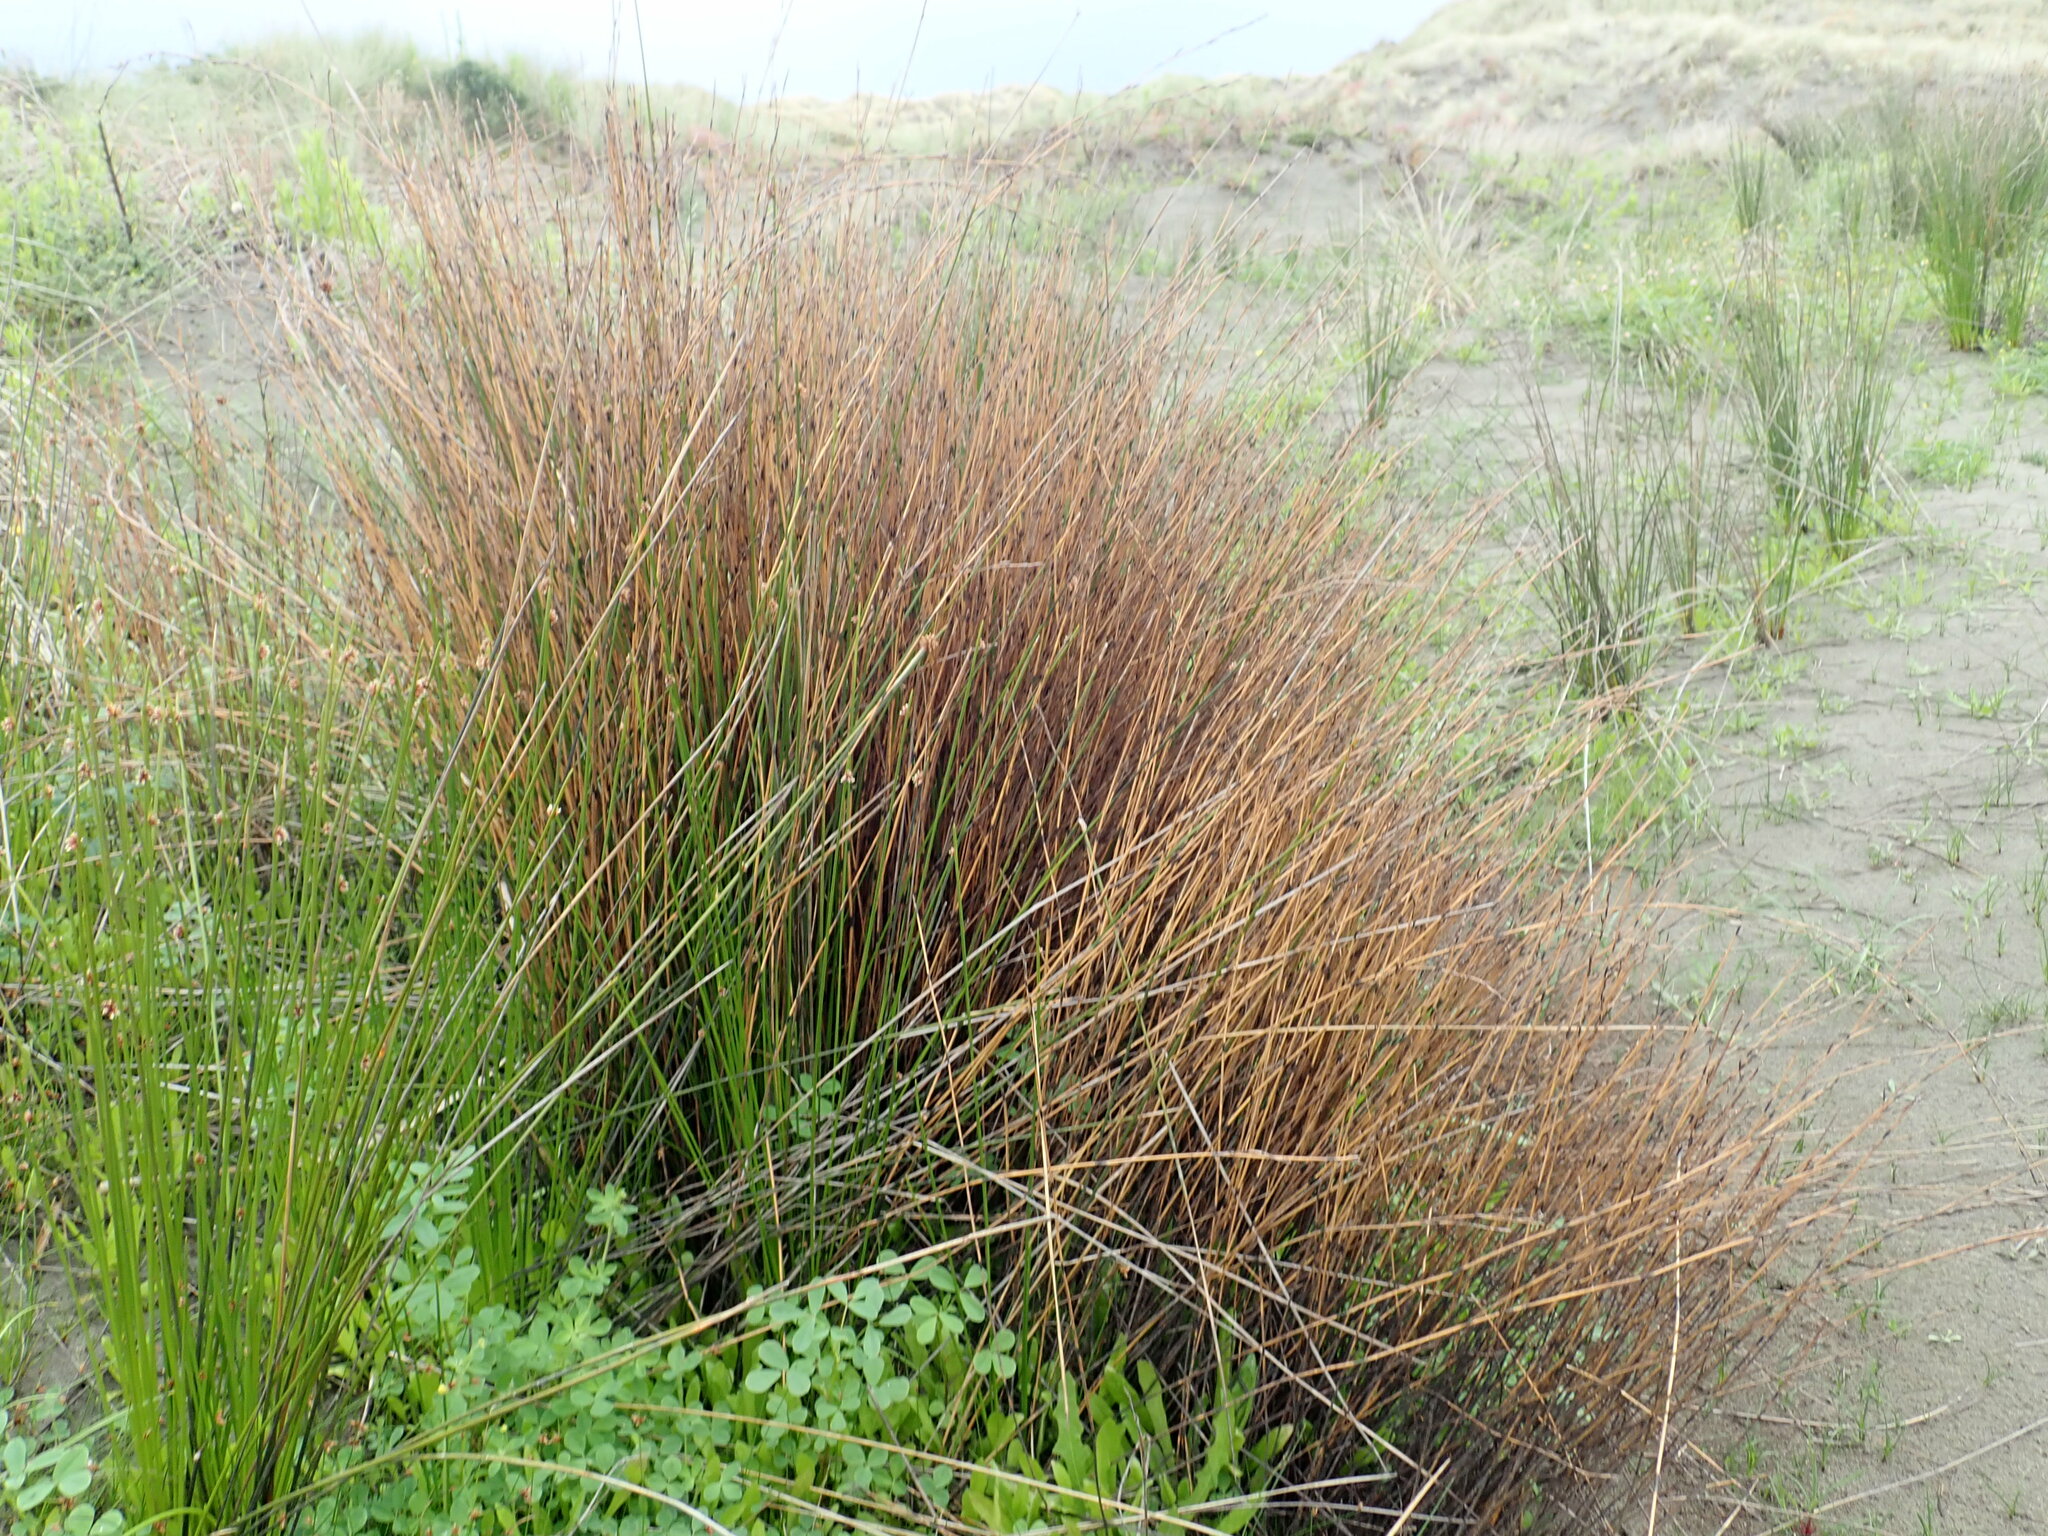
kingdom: Plantae
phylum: Tracheophyta
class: Liliopsida
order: Poales
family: Restionaceae
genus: Apodasmia
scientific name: Apodasmia similis
